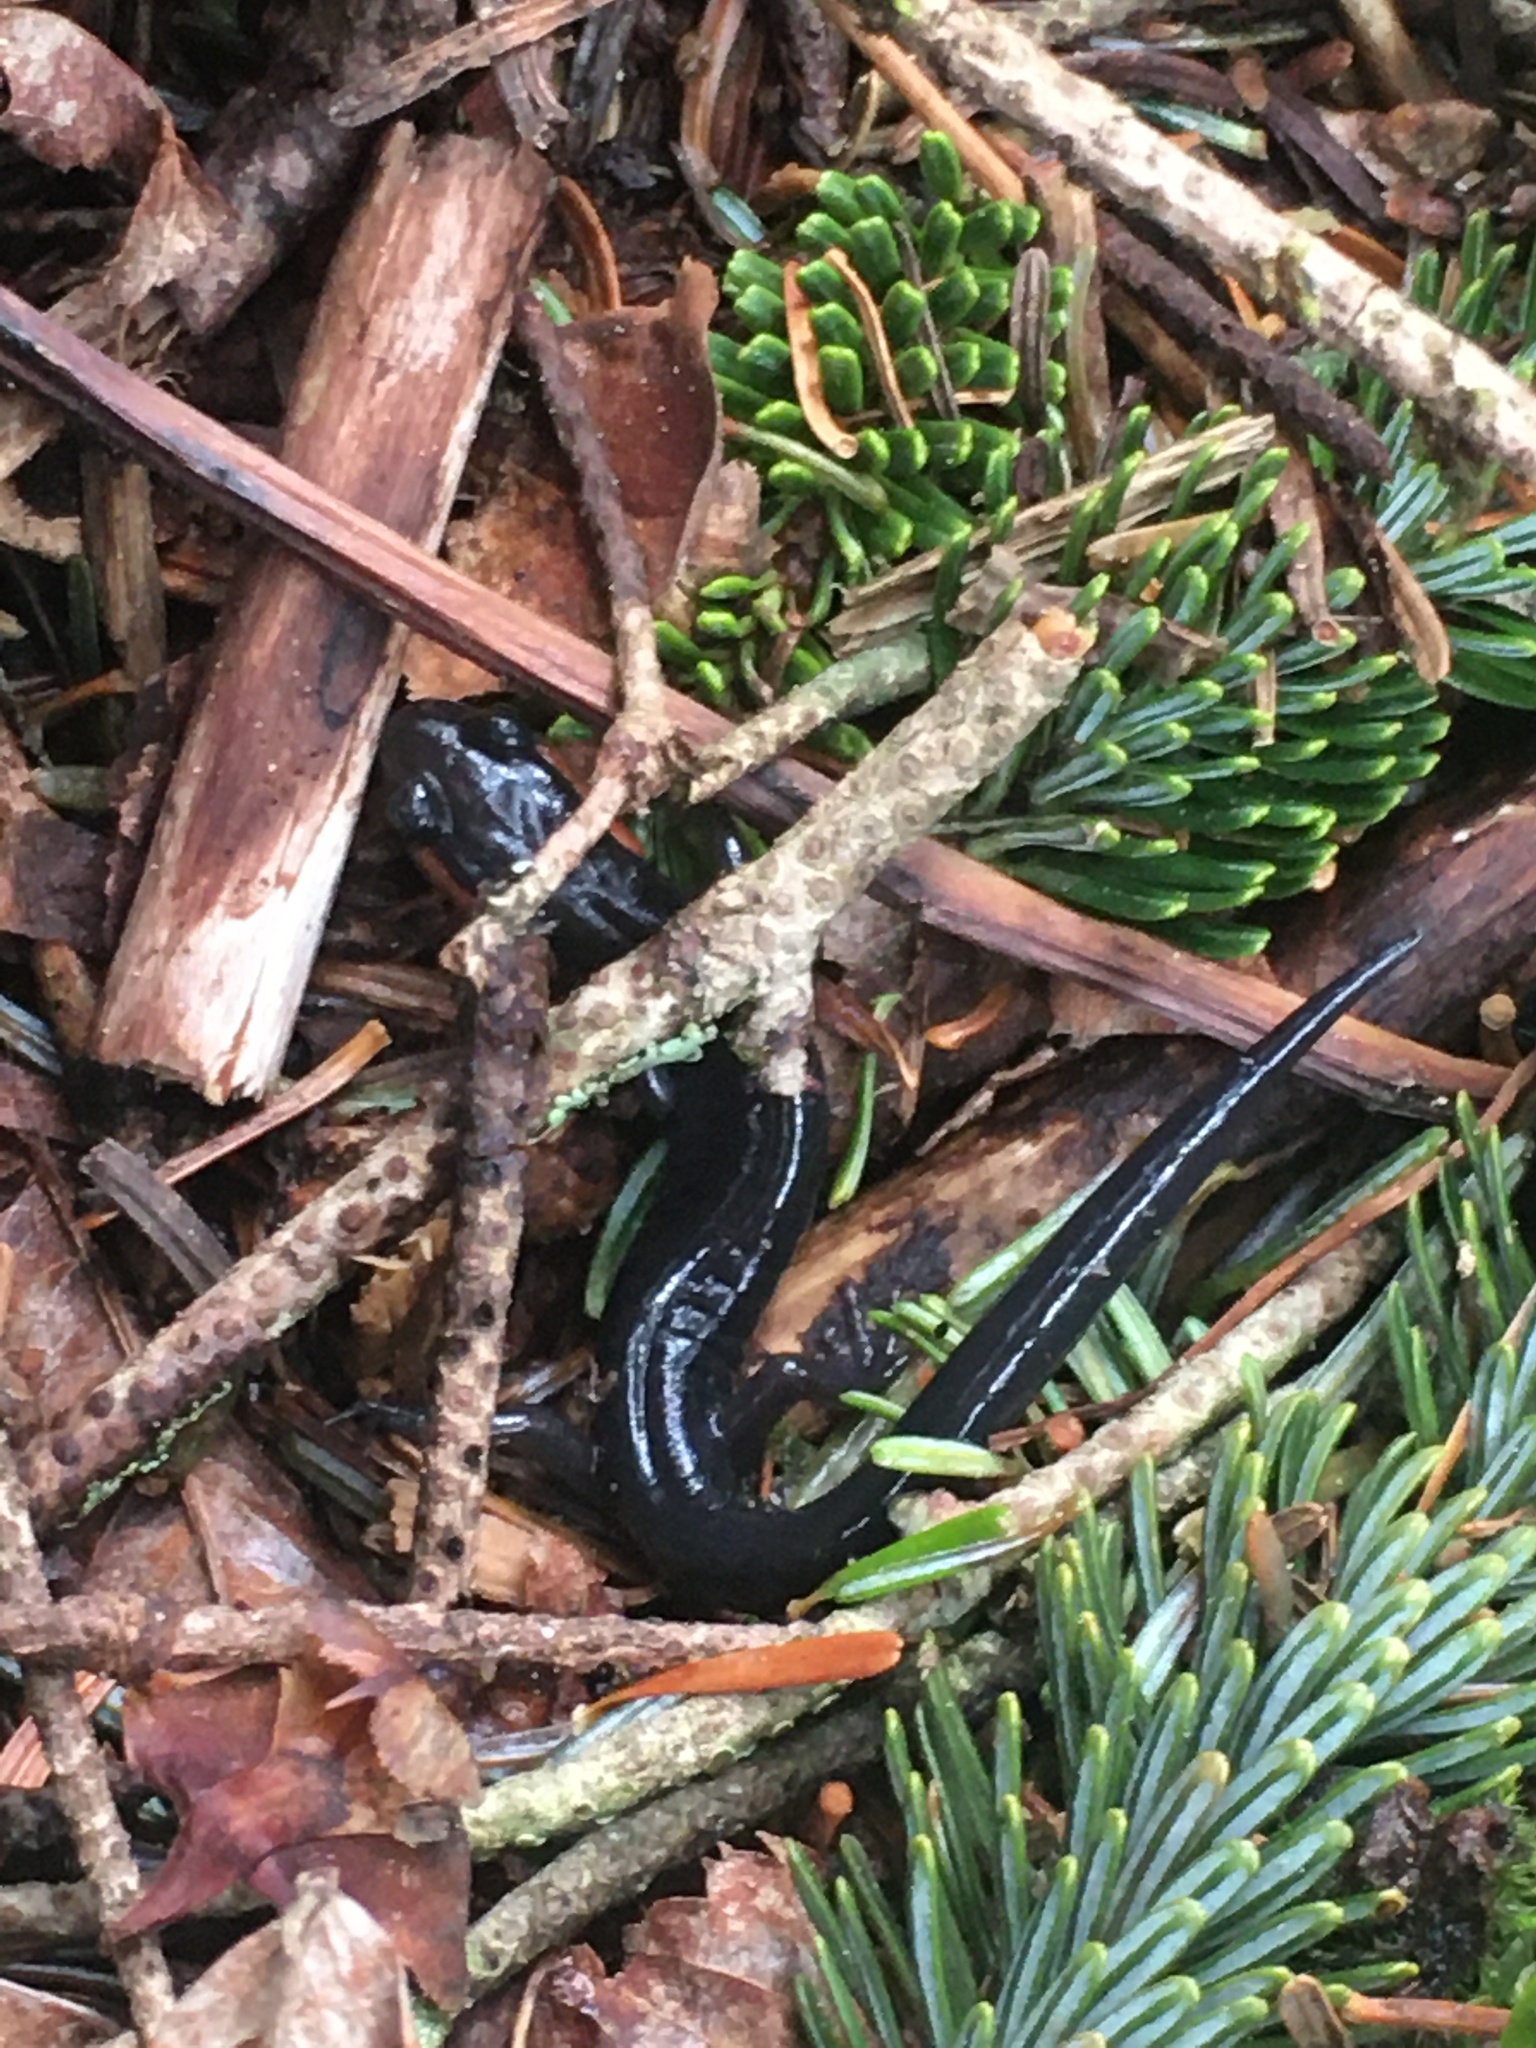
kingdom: Animalia
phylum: Chordata
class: Amphibia
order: Caudata
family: Plethodontidae
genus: Plethodon
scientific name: Plethodon jordani
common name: Red-cheeked salamander
